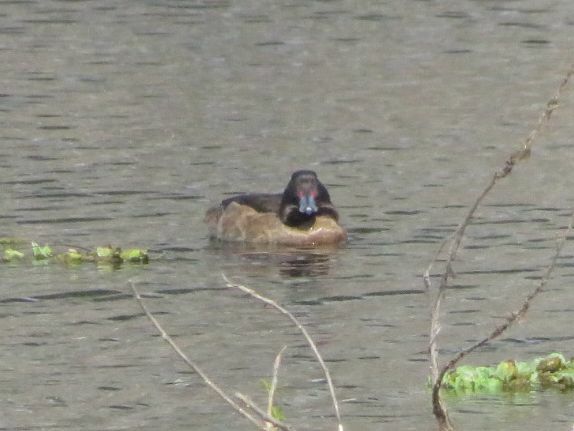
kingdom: Animalia
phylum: Chordata
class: Aves
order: Anseriformes
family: Anatidae
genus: Heteronetta
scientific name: Heteronetta atricapilla
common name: Black-headed duck
